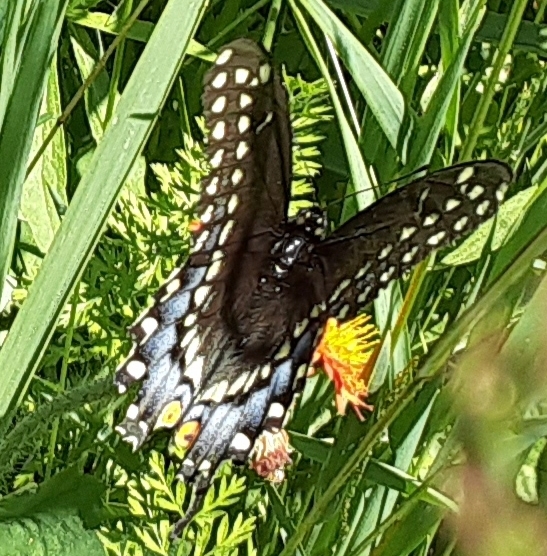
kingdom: Animalia
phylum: Arthropoda
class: Insecta
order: Lepidoptera
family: Papilionidae
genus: Papilio
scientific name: Papilio polyxenes
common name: Black swallowtail
